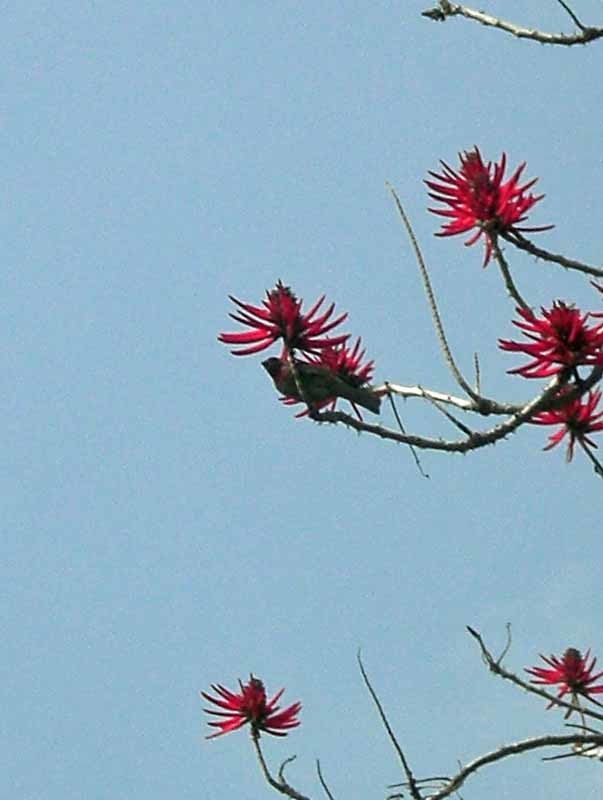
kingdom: Animalia
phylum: Chordata
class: Aves
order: Passeriformes
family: Fringillidae
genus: Haemorhous
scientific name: Haemorhous mexicanus
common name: House finch
